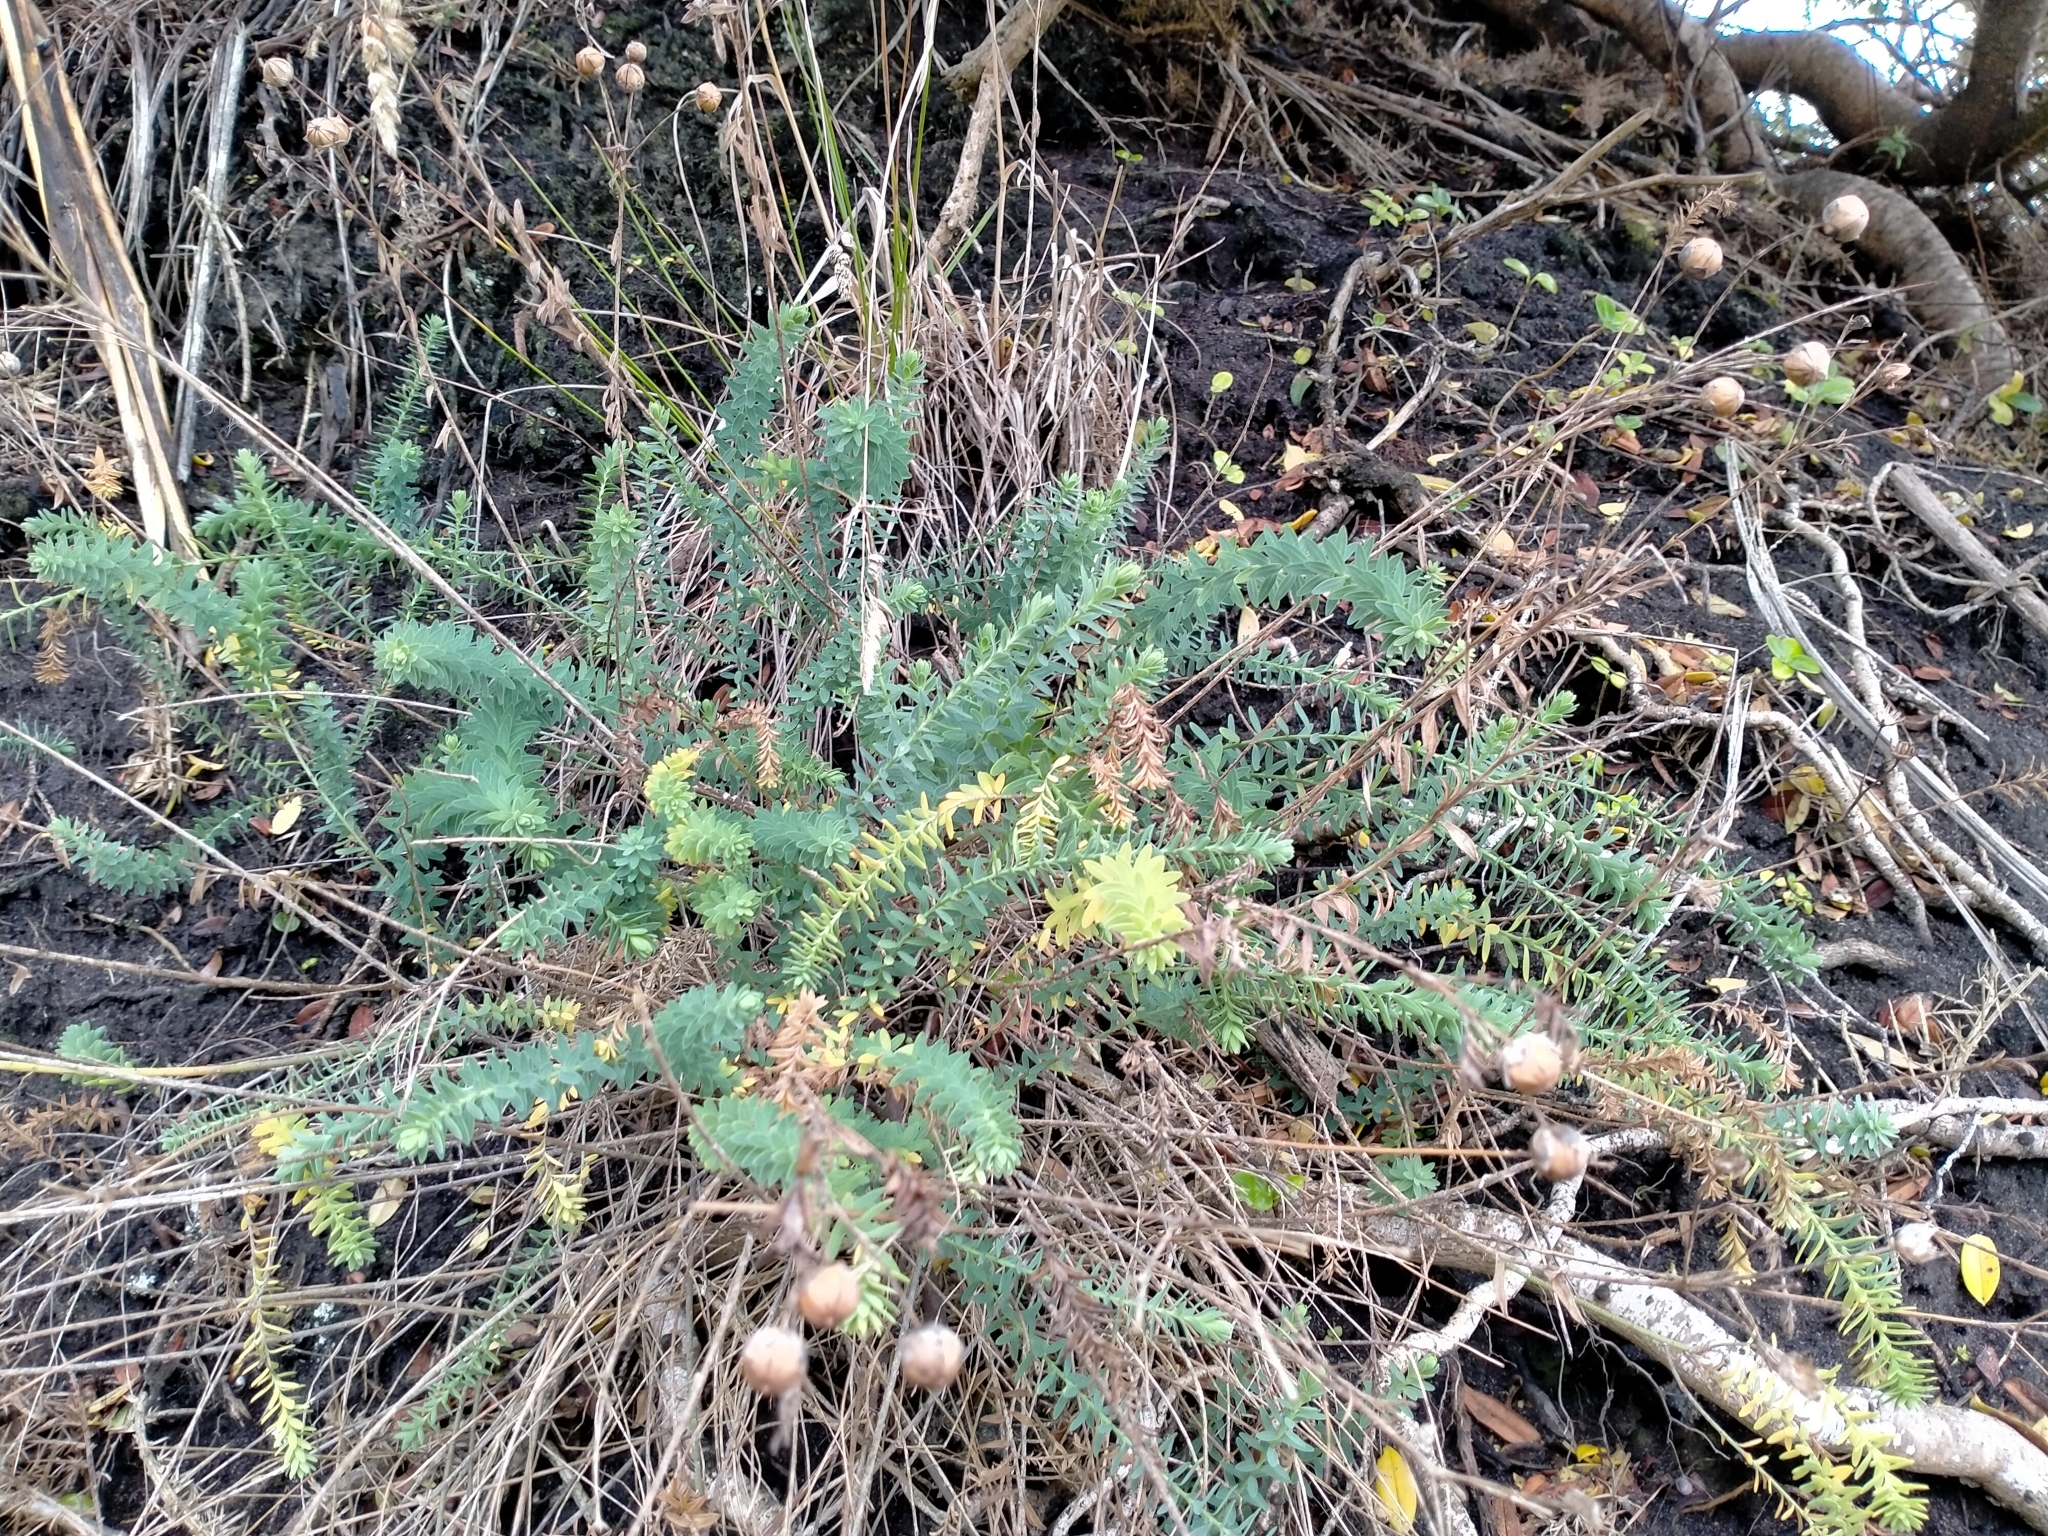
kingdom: Plantae
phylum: Tracheophyta
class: Magnoliopsida
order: Malpighiales
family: Linaceae
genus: Linum
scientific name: Linum monogynum
